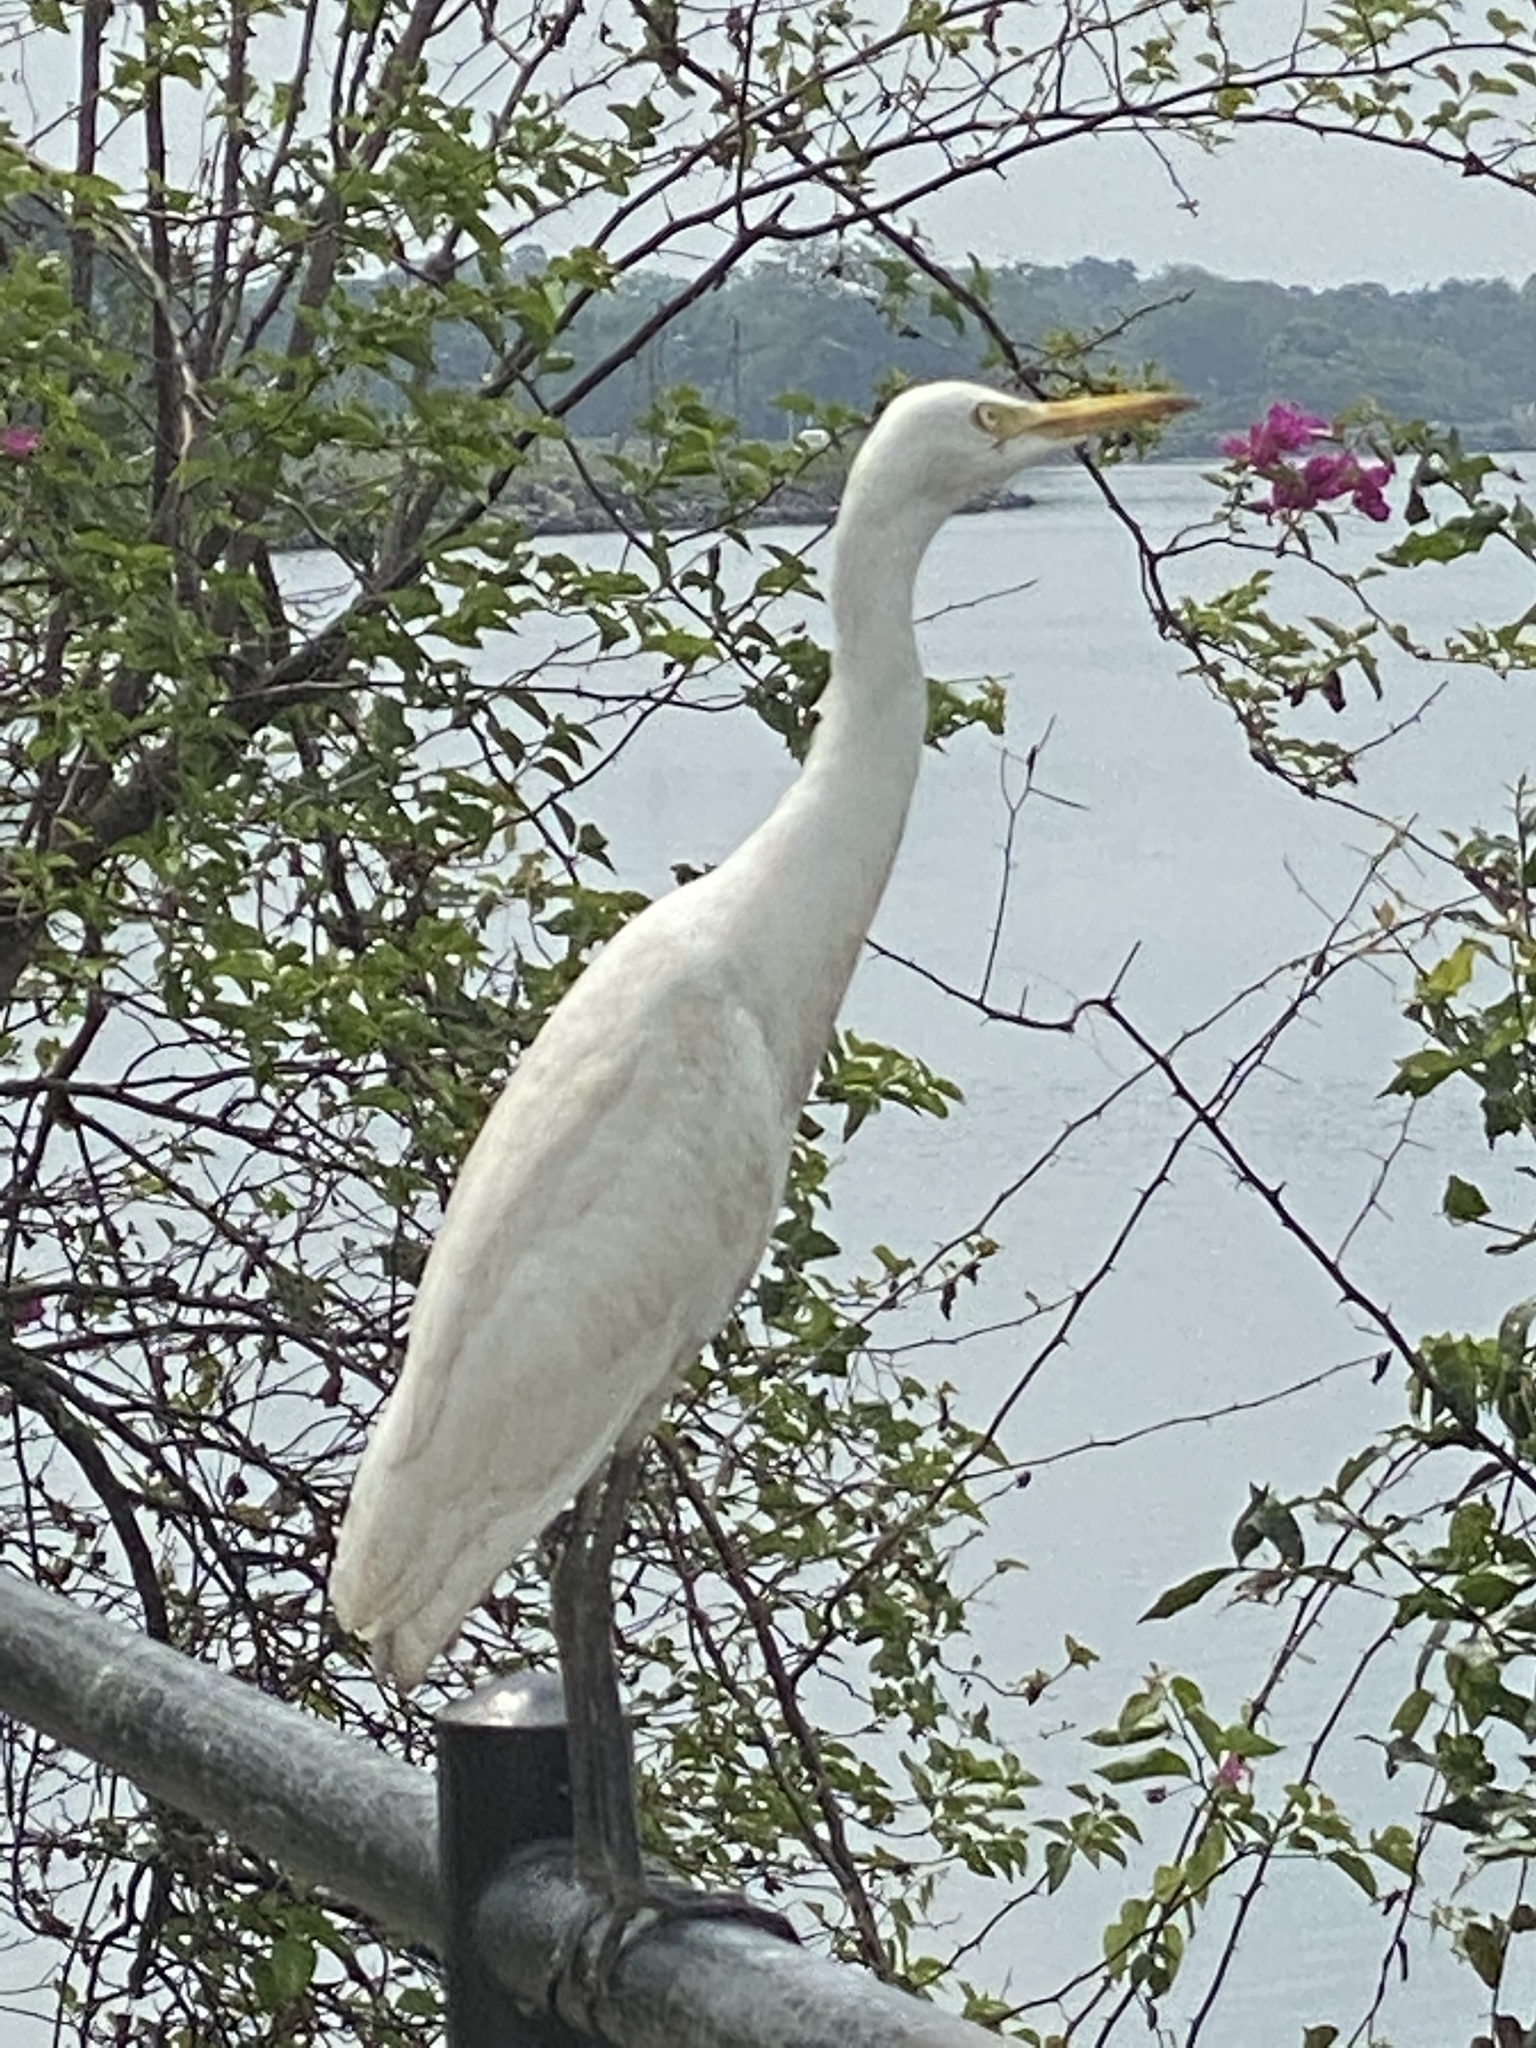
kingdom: Animalia
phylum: Chordata
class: Aves
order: Pelecaniformes
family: Ardeidae
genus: Bubulcus
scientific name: Bubulcus coromandus
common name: Eastern cattle egret
